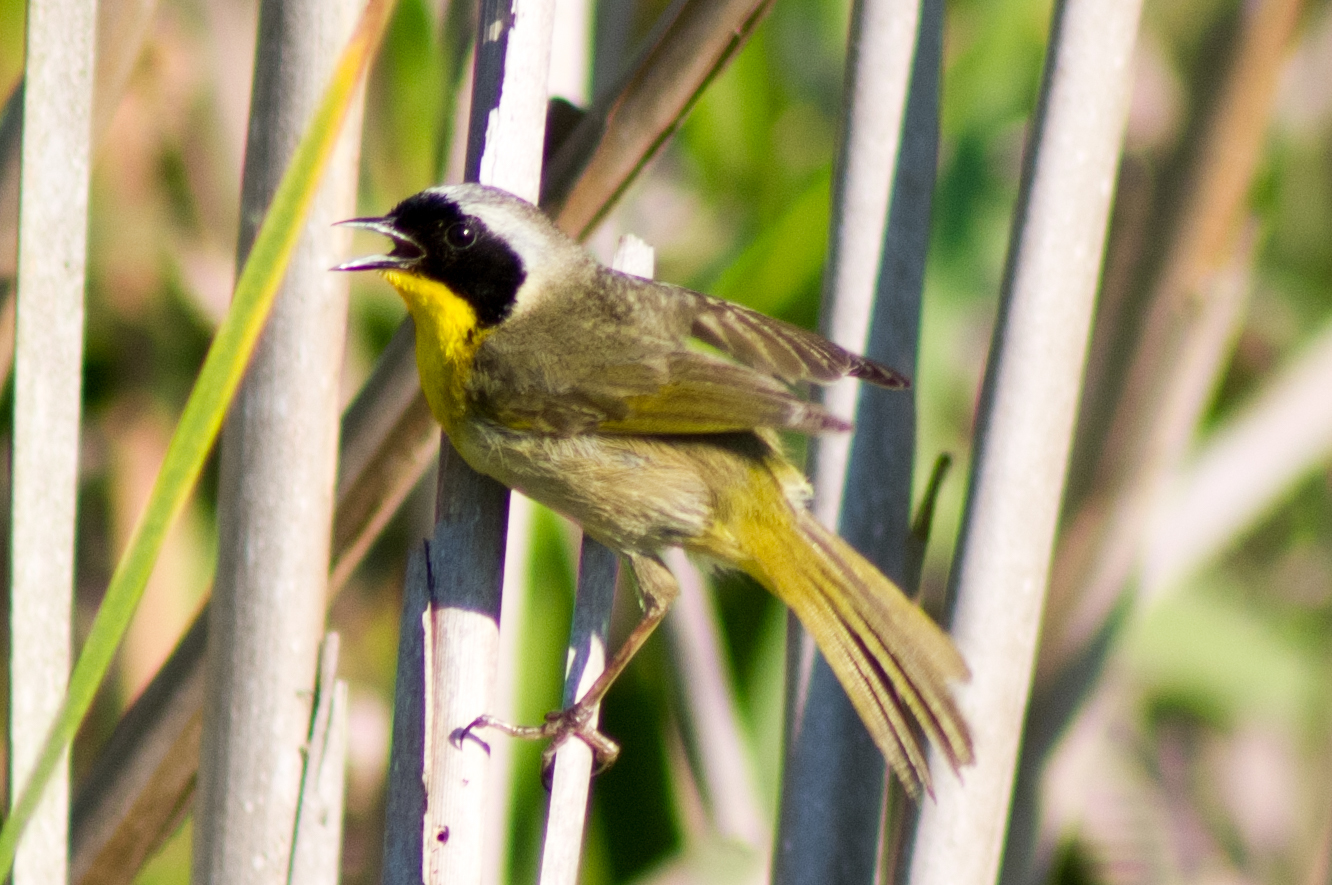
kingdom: Animalia
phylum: Chordata
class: Aves
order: Passeriformes
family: Parulidae
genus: Geothlypis
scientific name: Geothlypis trichas
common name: Common yellowthroat
